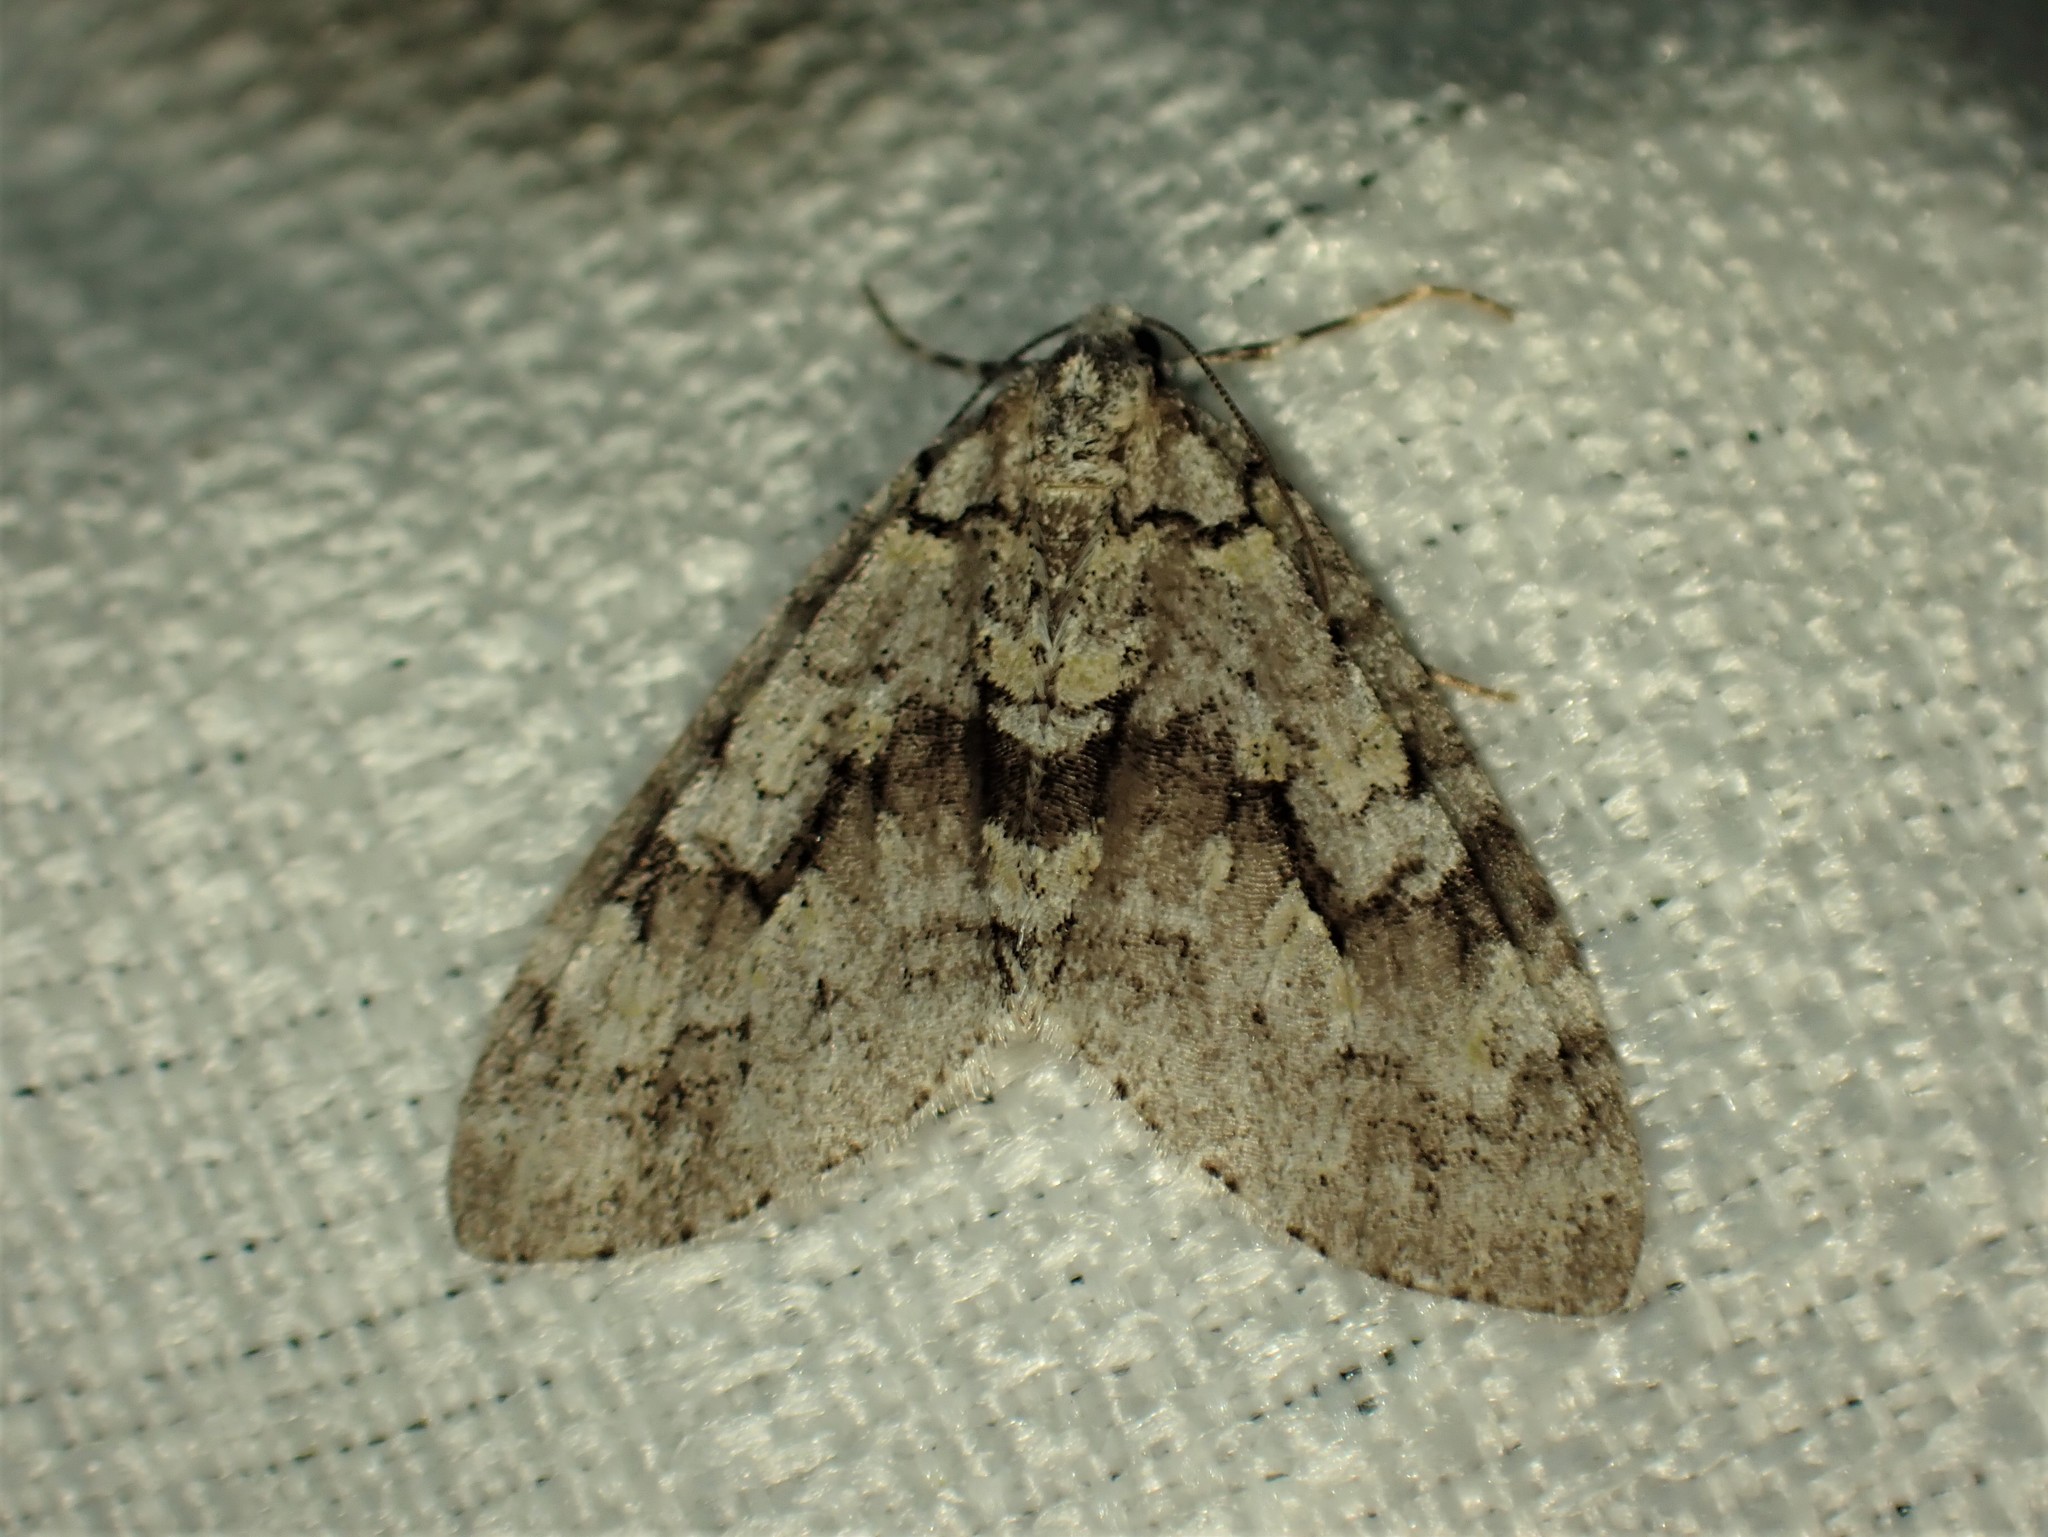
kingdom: Animalia
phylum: Arthropoda
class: Insecta
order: Lepidoptera
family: Geometridae
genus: Cladara
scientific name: Cladara limitaria
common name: Mottled gray carpet
